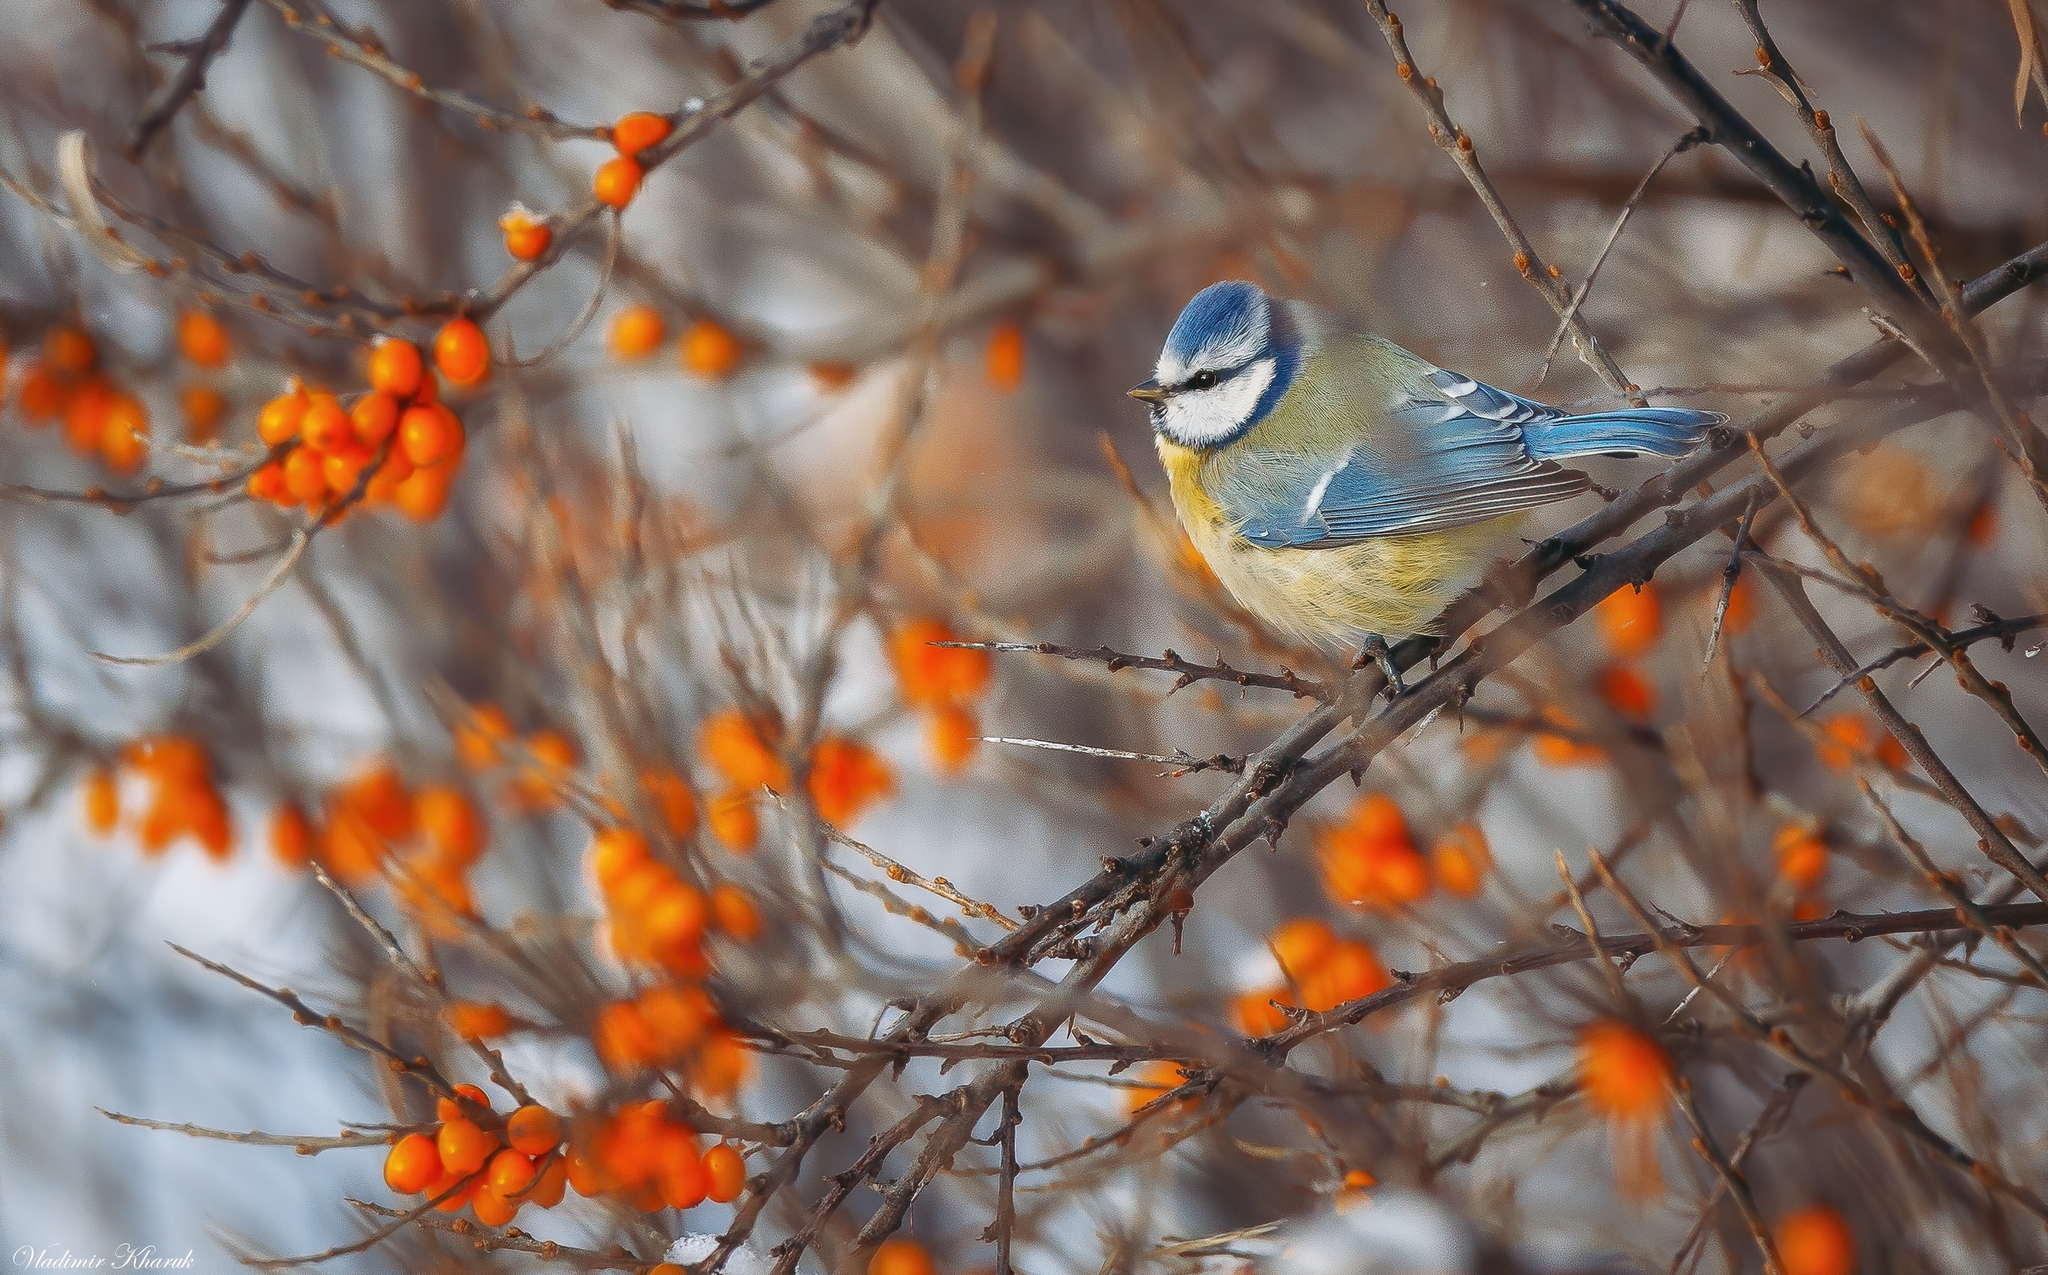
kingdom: Animalia
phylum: Chordata
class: Aves
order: Passeriformes
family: Paridae
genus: Cyanistes
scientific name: Cyanistes caeruleus
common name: Eurasian blue tit
